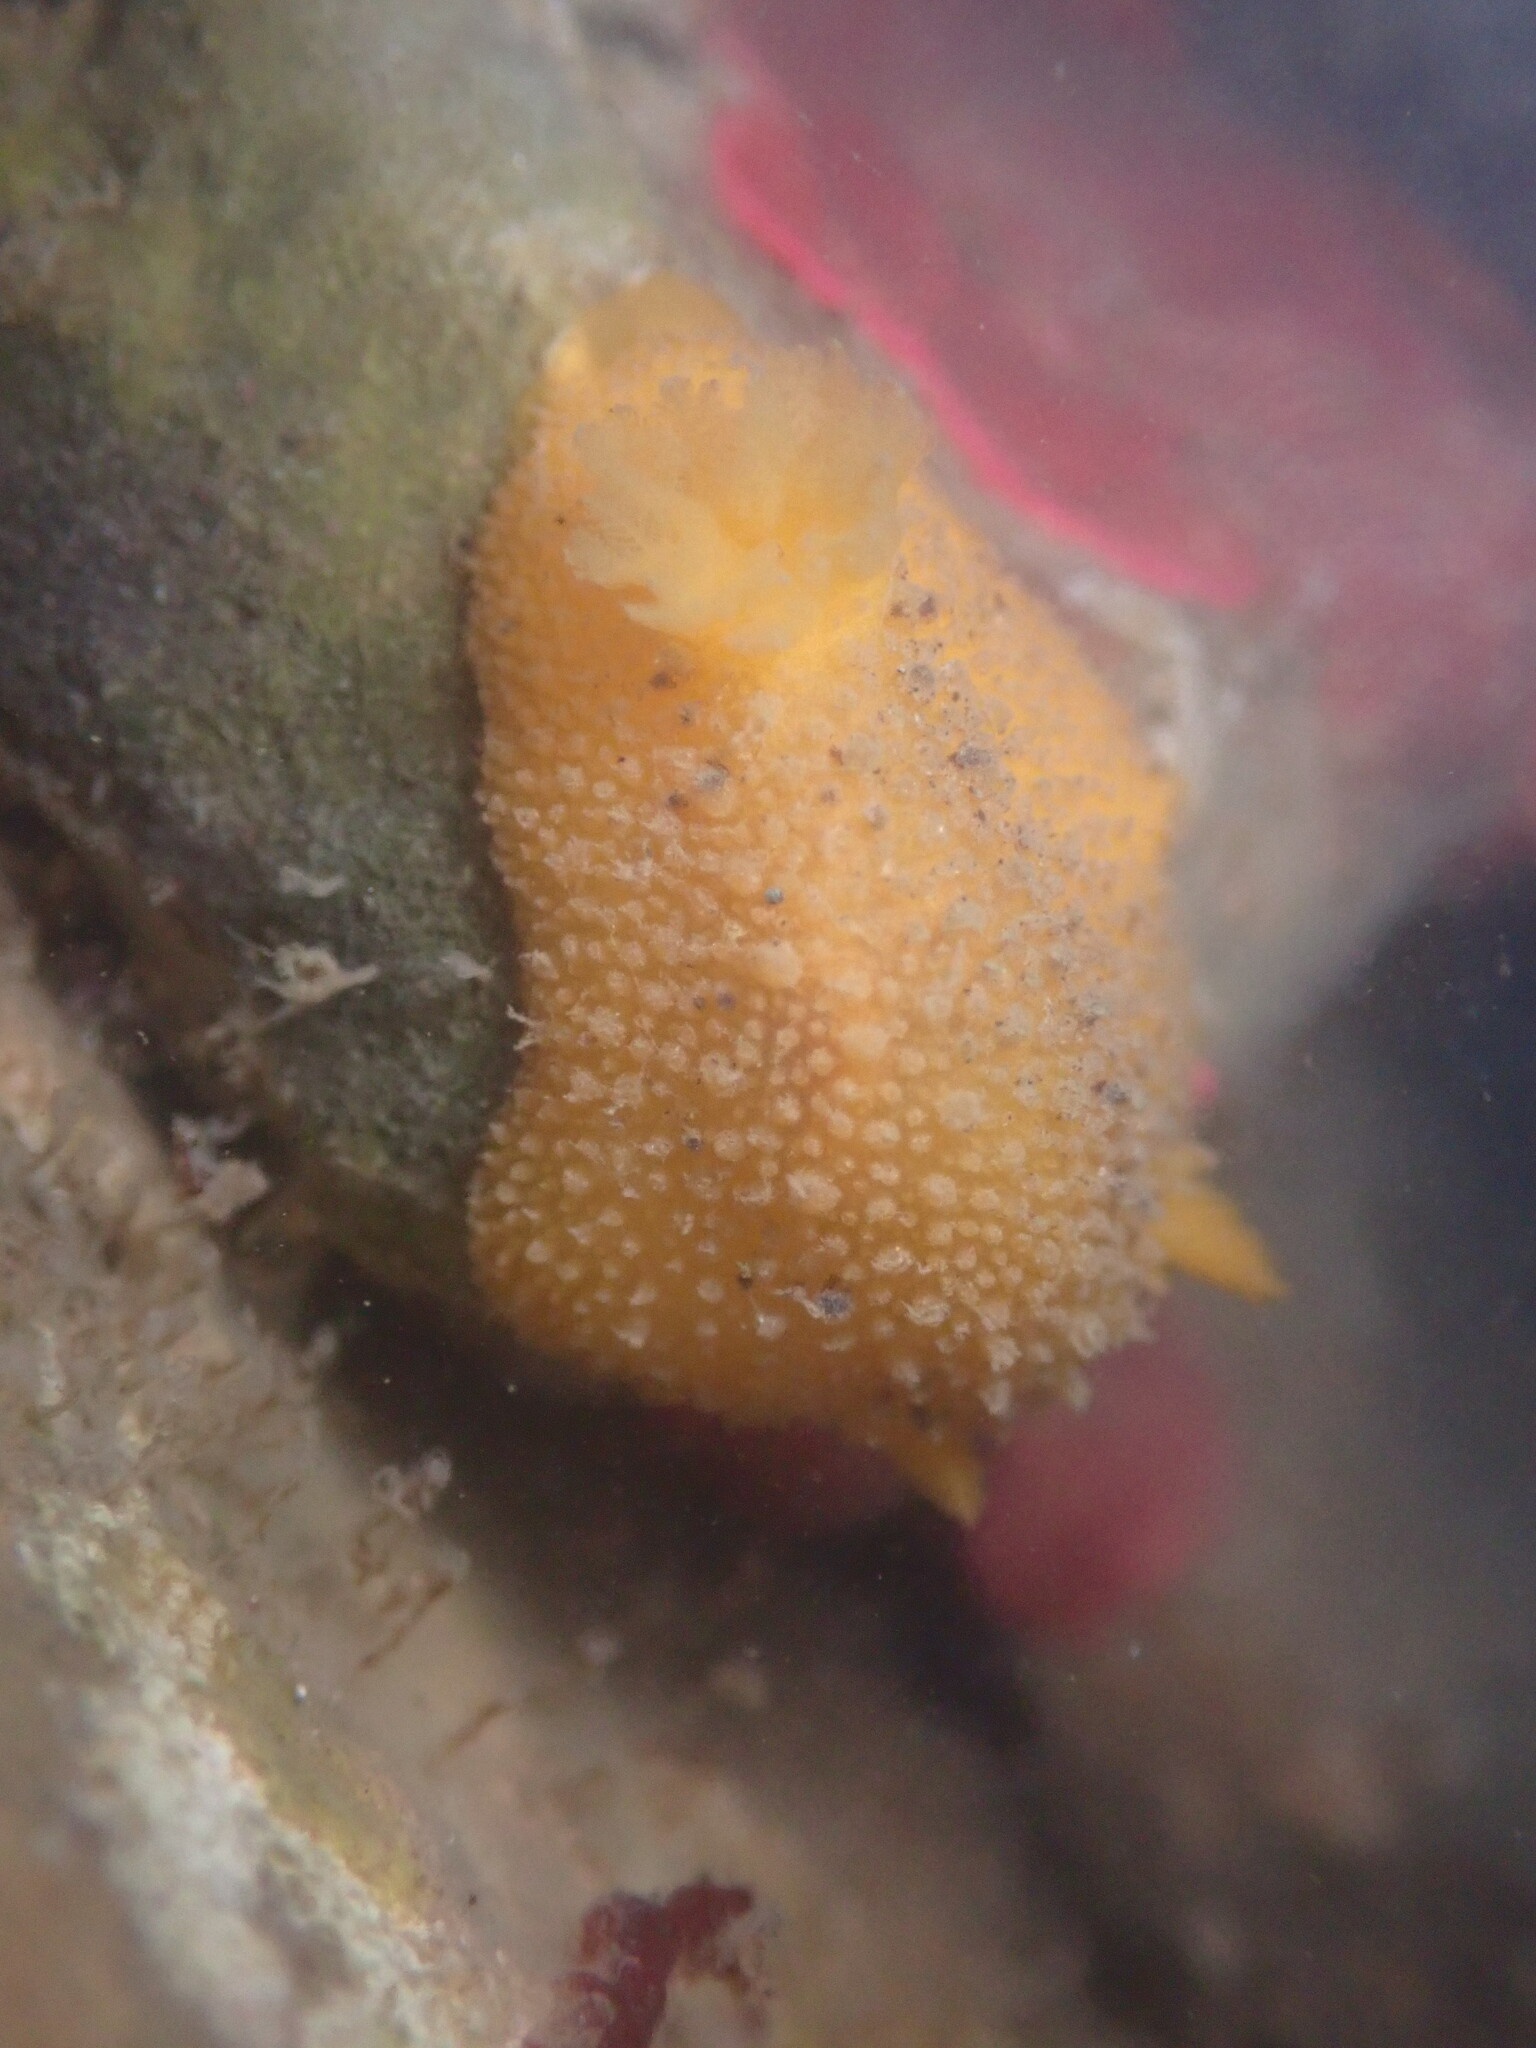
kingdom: Animalia
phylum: Mollusca
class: Gastropoda
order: Nudibranchia
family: Dorididae
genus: Doris
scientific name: Doris montereyensis
